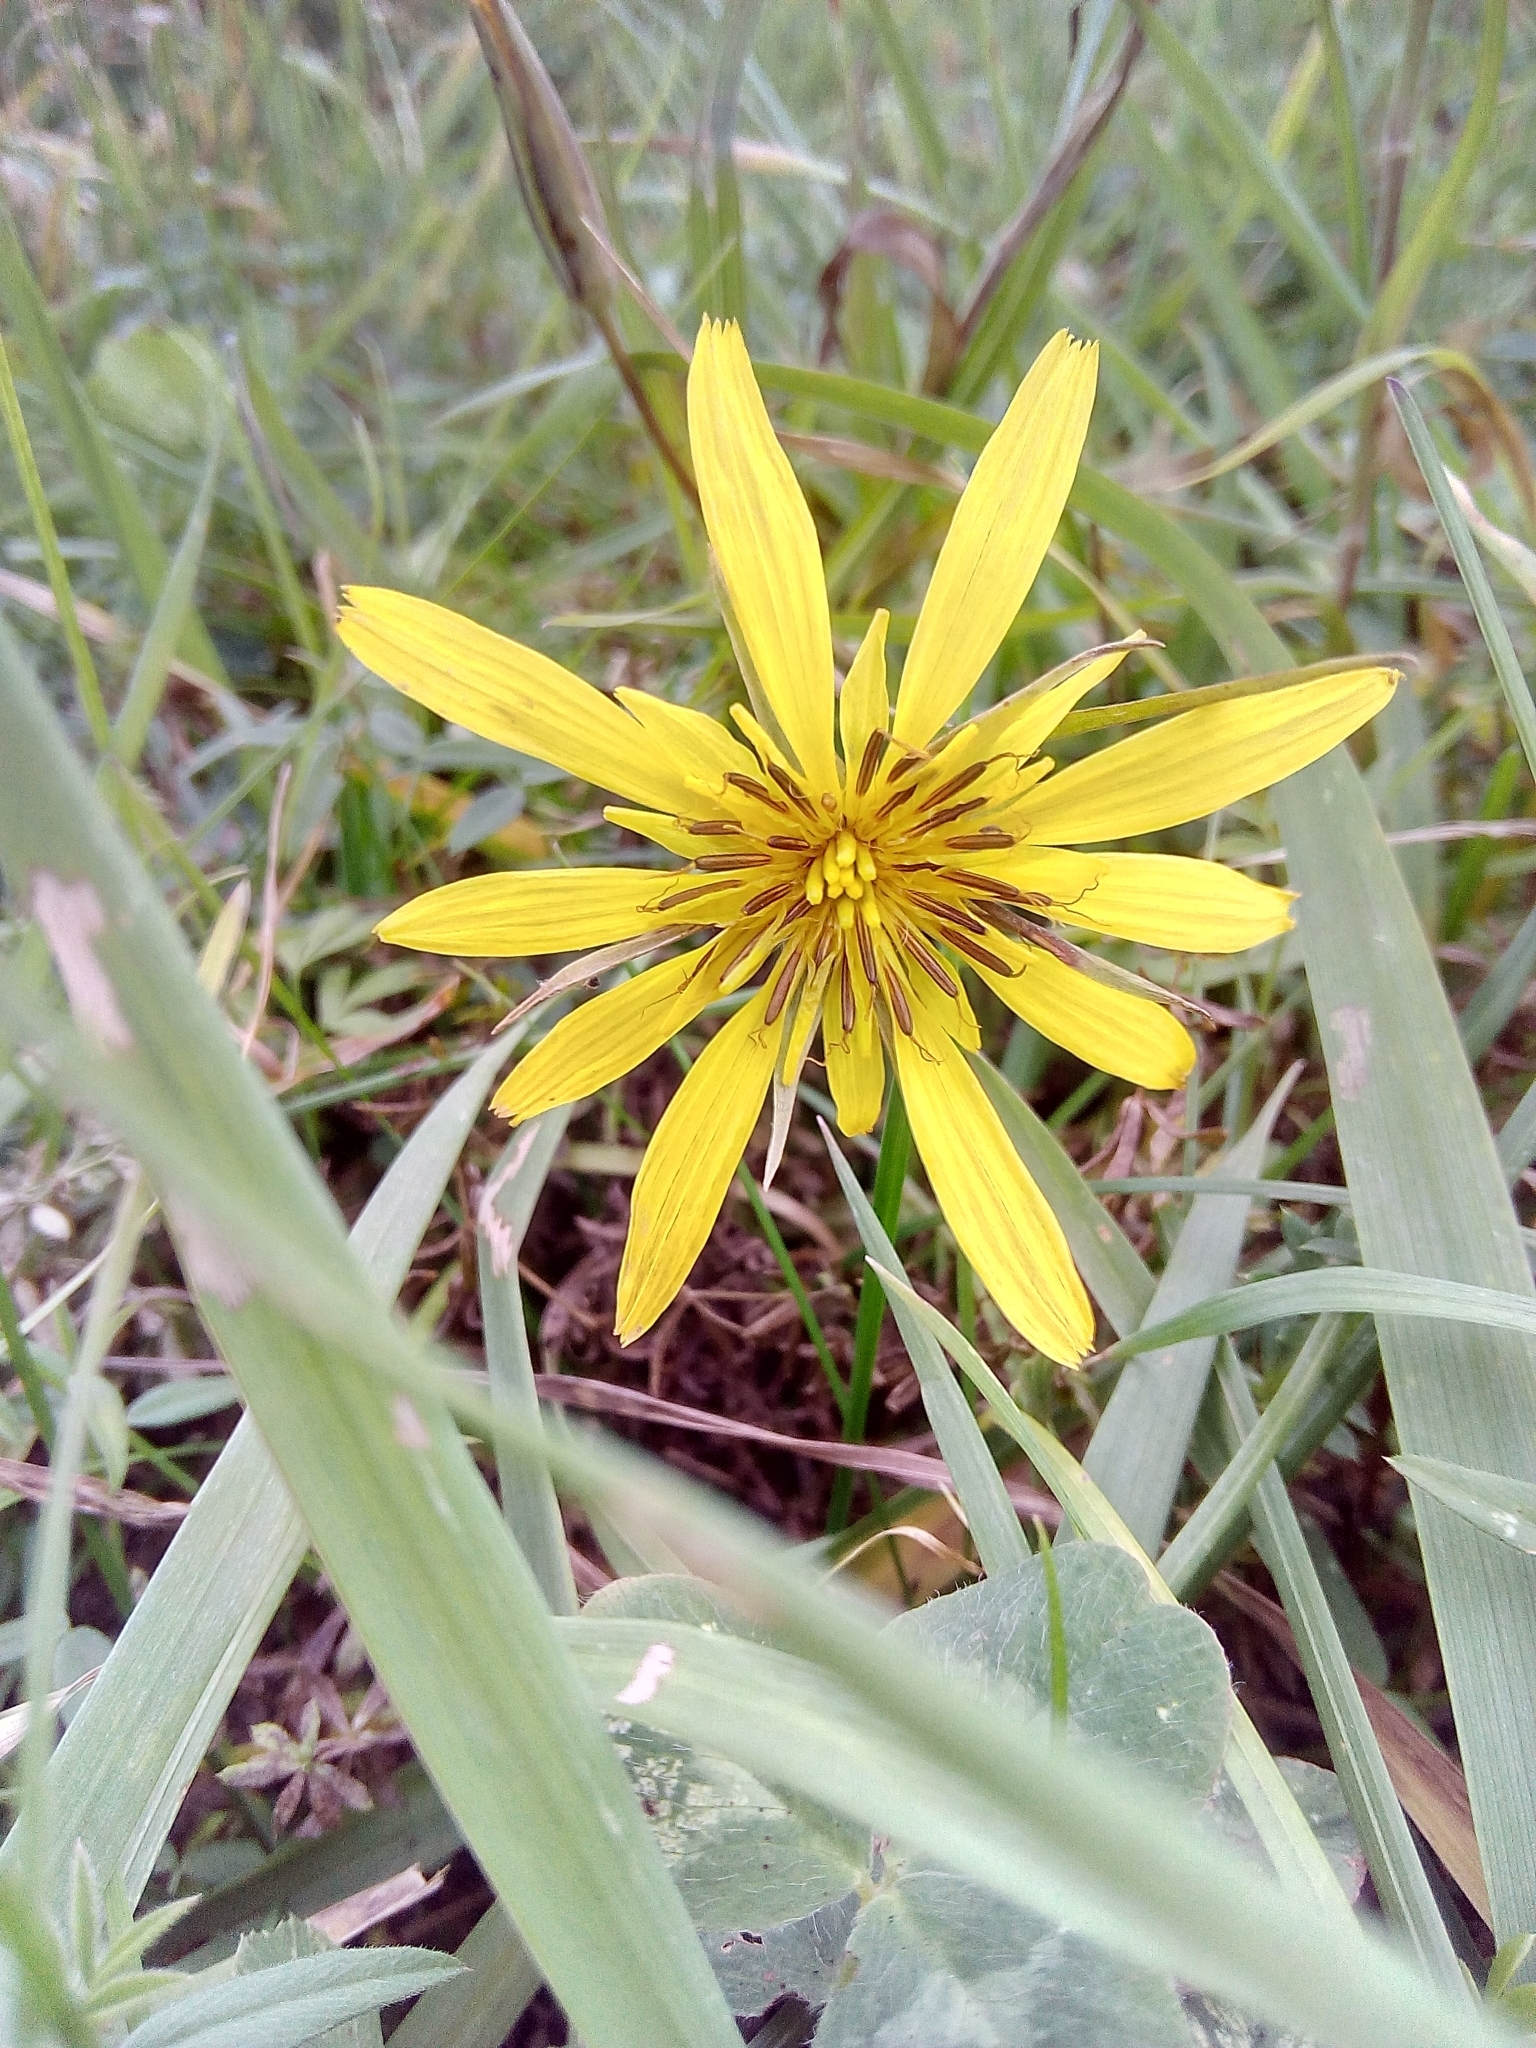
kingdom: Plantae
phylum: Tracheophyta
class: Magnoliopsida
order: Asterales
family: Asteraceae
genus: Tragopogon
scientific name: Tragopogon orientalis
